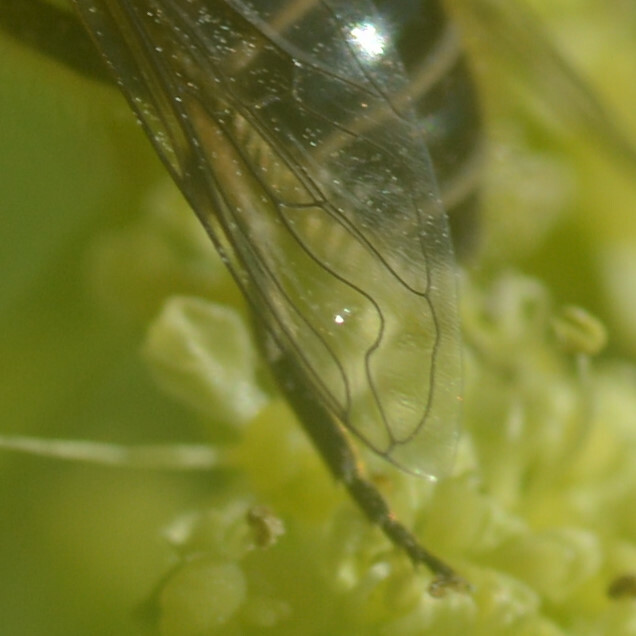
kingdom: Animalia
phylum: Arthropoda
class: Insecta
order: Diptera
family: Syrphidae
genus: Eristalis
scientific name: Eristalis arbustorum
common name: Hover fly
